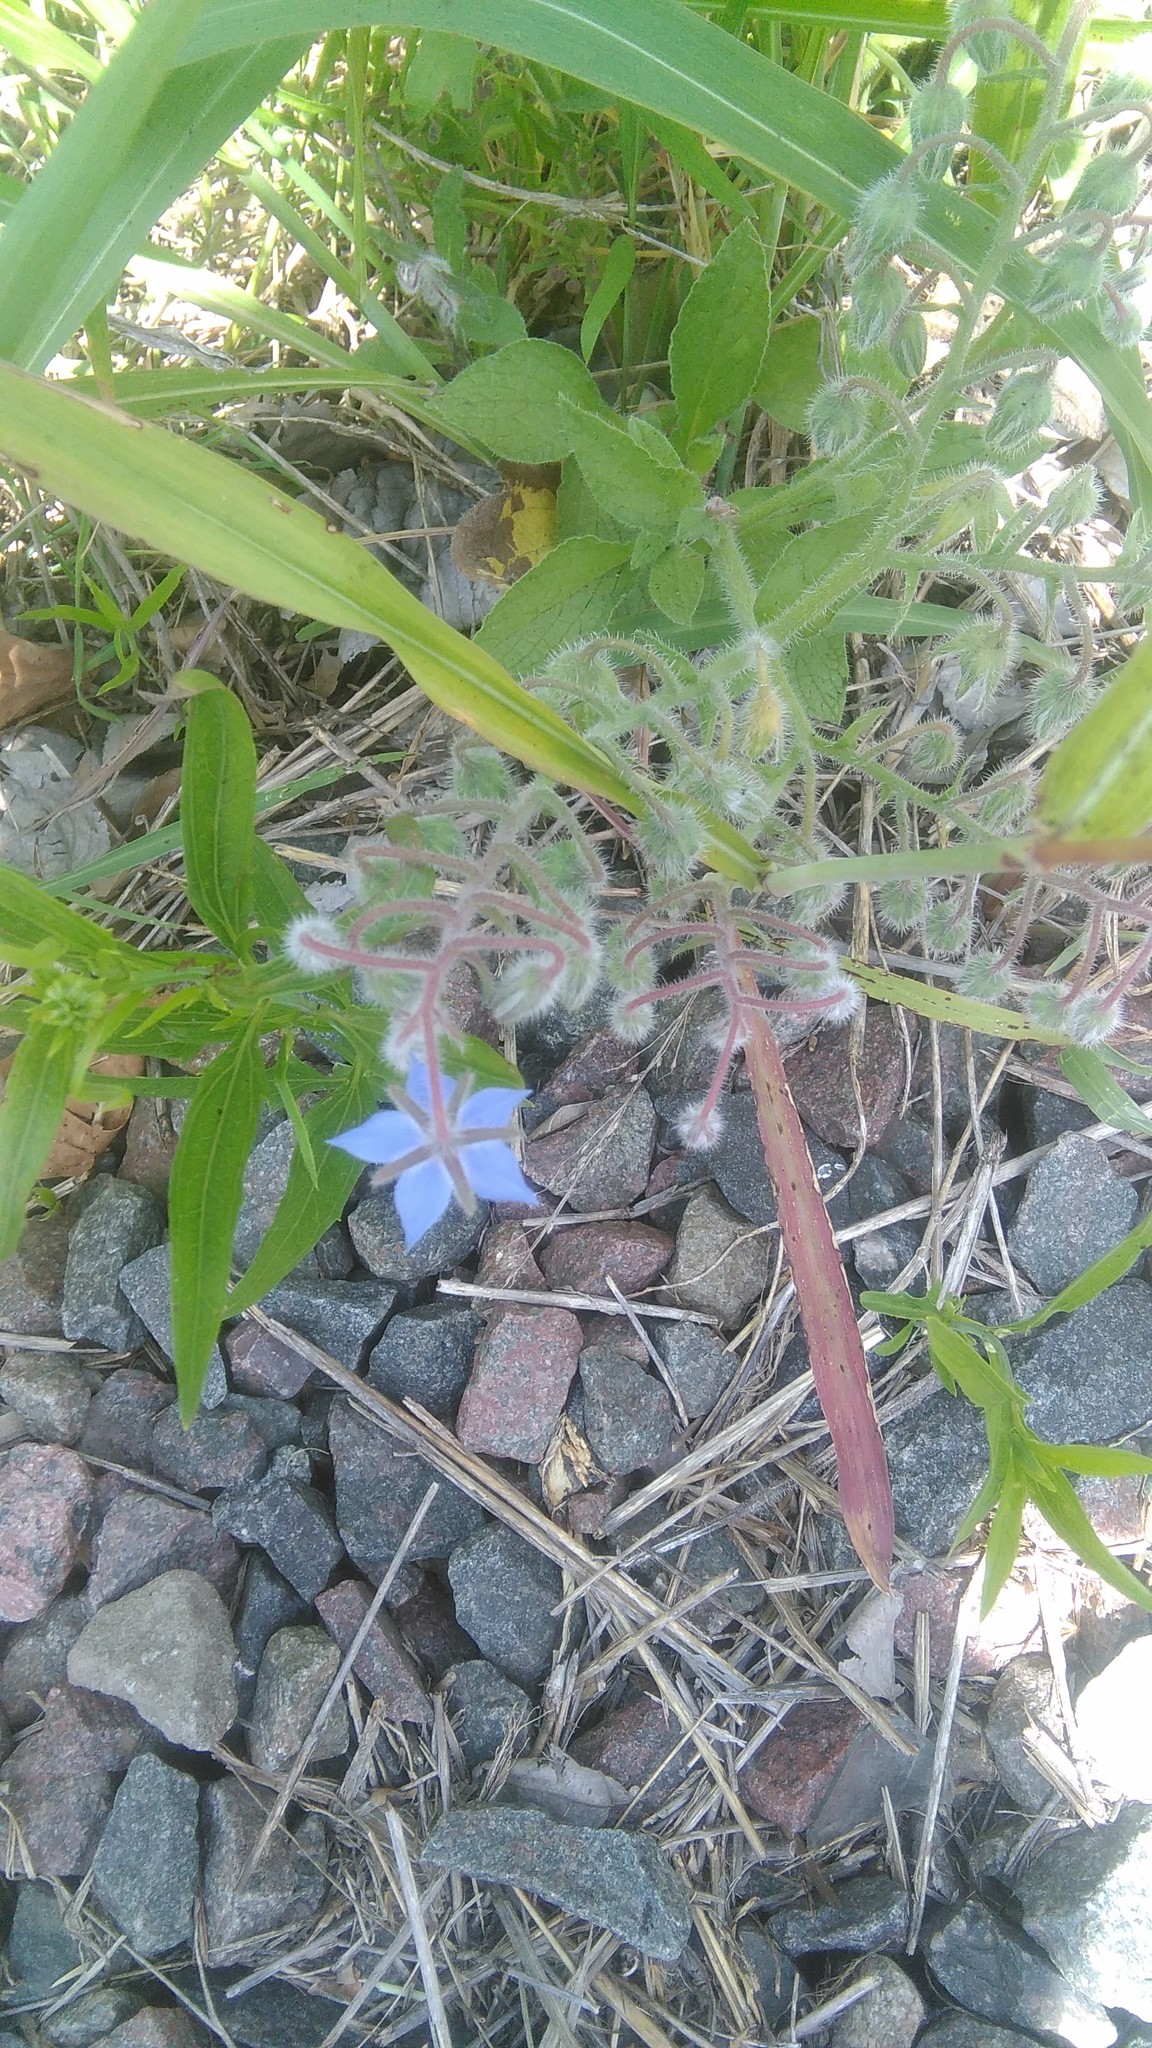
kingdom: Plantae
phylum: Tracheophyta
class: Magnoliopsida
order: Boraginales
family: Boraginaceae
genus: Borago
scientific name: Borago officinalis
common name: Borage
